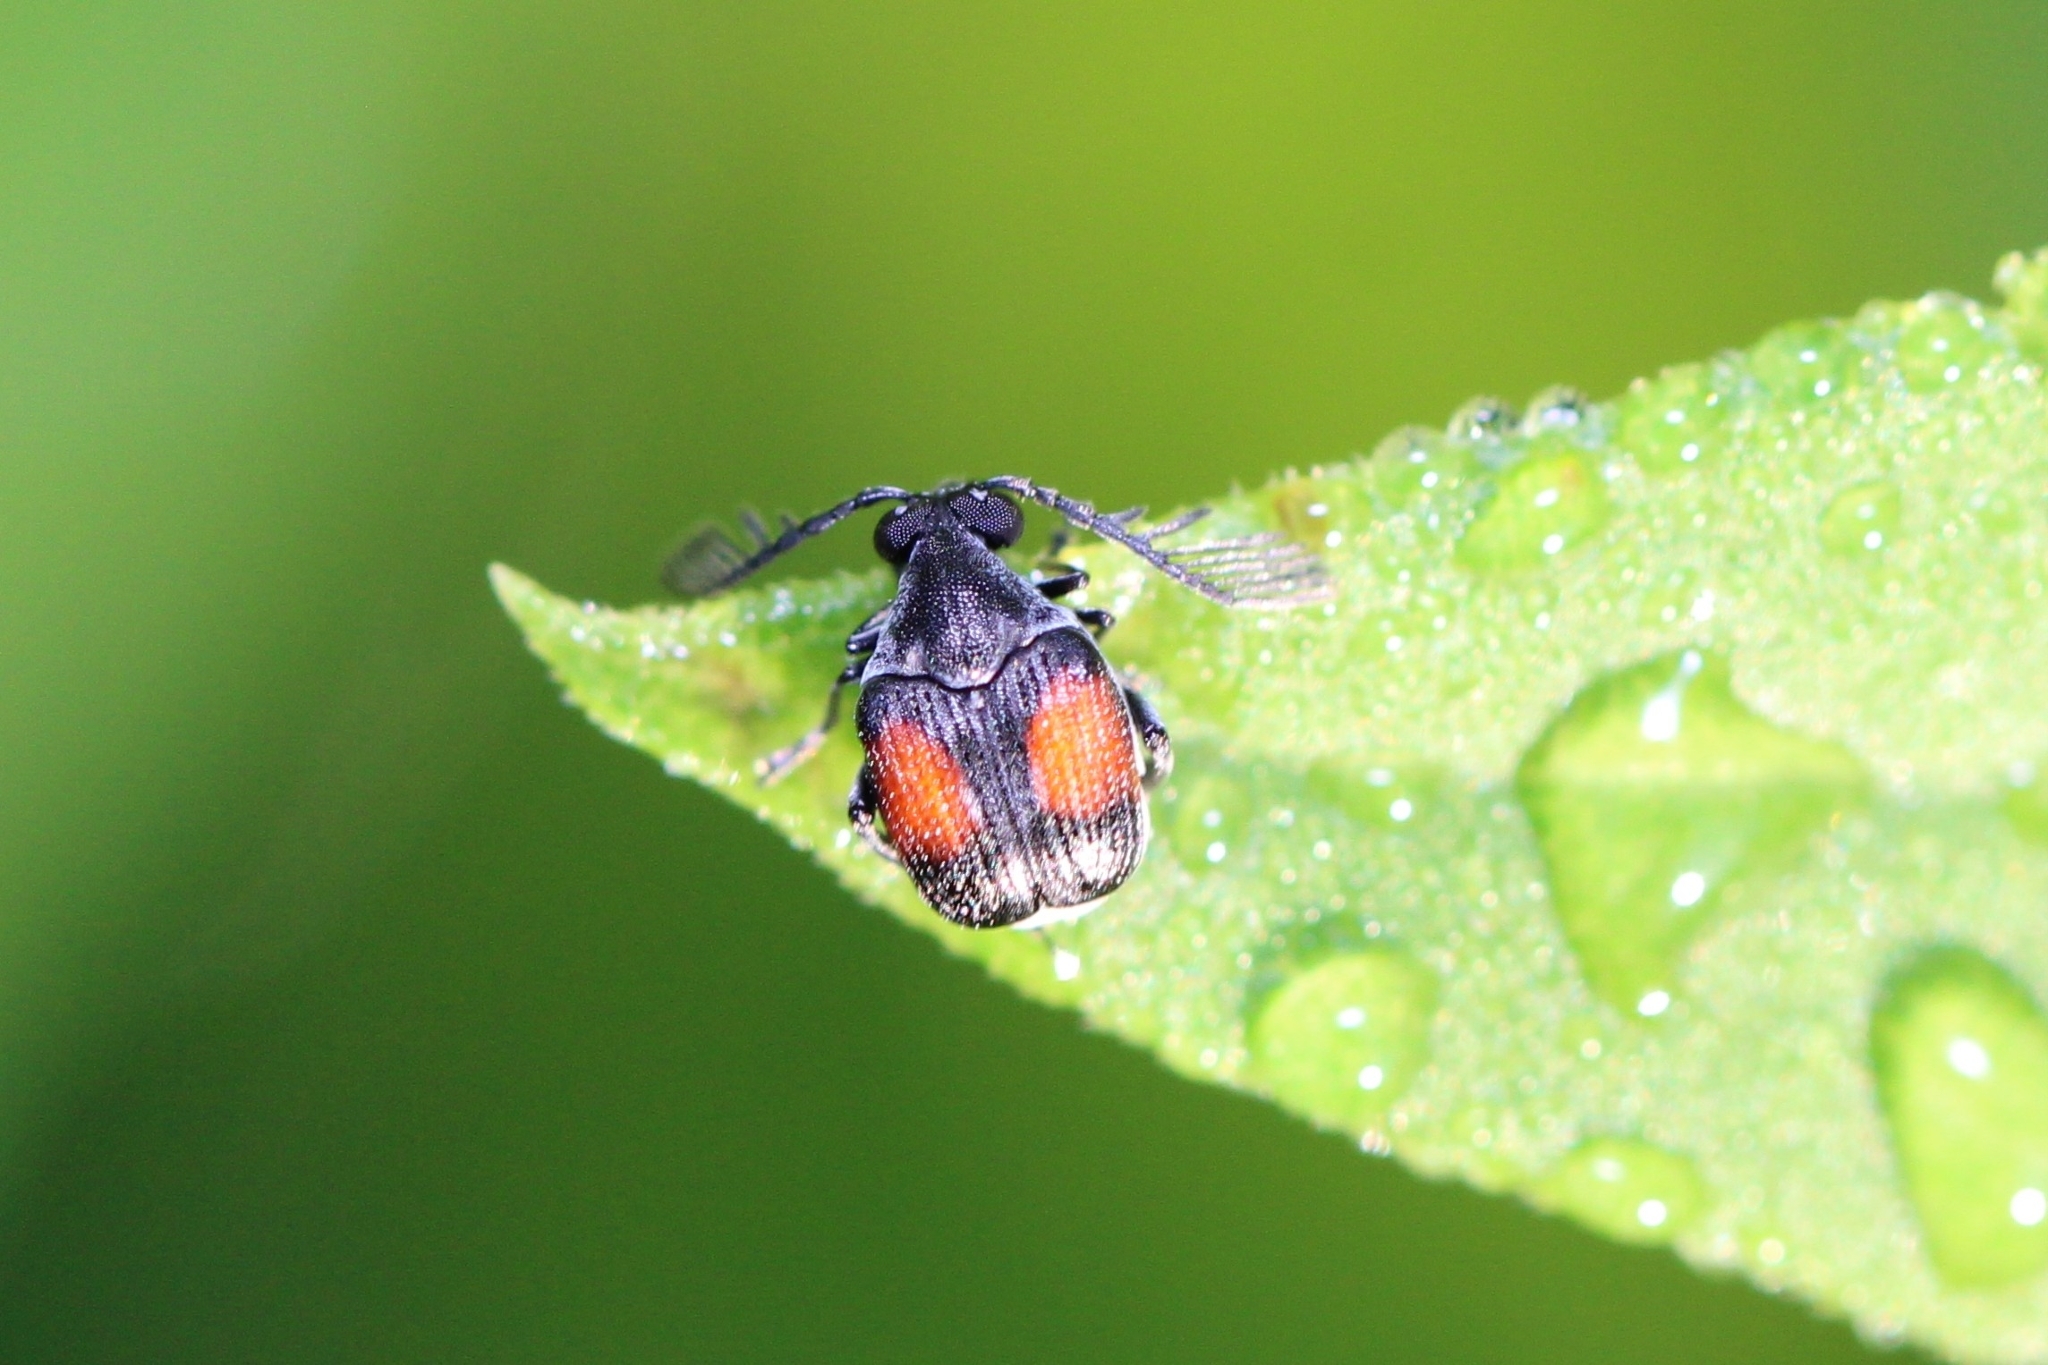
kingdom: Animalia
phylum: Arthropoda
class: Insecta
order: Coleoptera
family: Chrysomelidae
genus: Megacerus
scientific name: Megacerus discoidus
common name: Red megacerus
